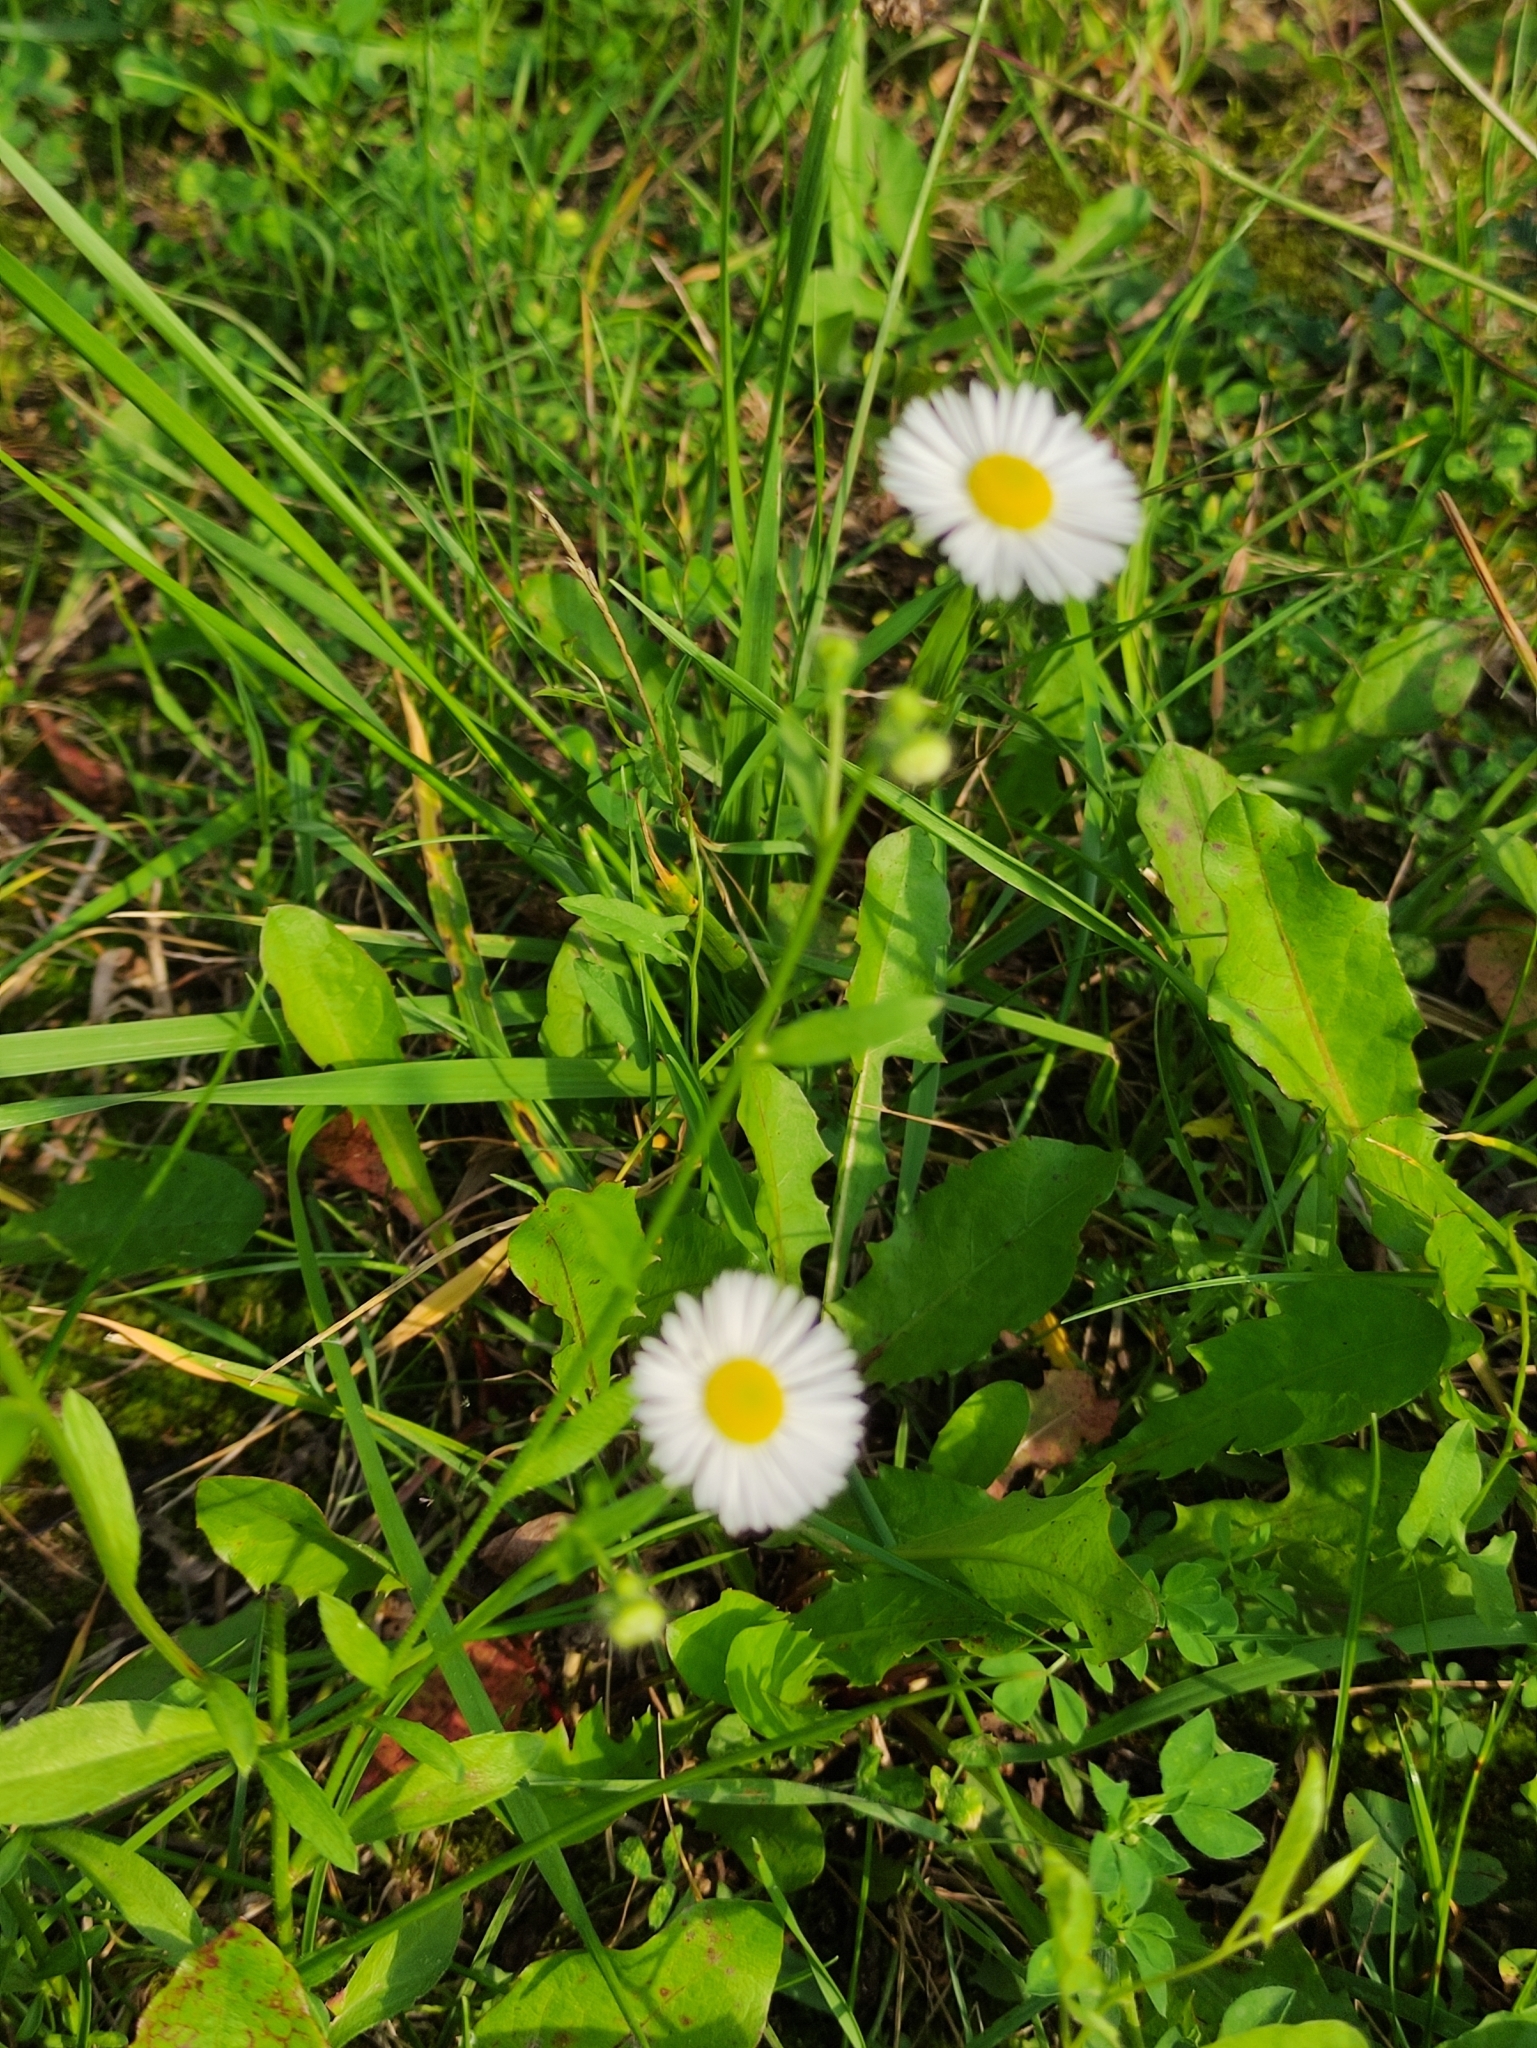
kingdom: Plantae
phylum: Tracheophyta
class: Magnoliopsida
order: Asterales
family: Asteraceae
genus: Erigeron
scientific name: Erigeron annuus
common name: Tall fleabane
